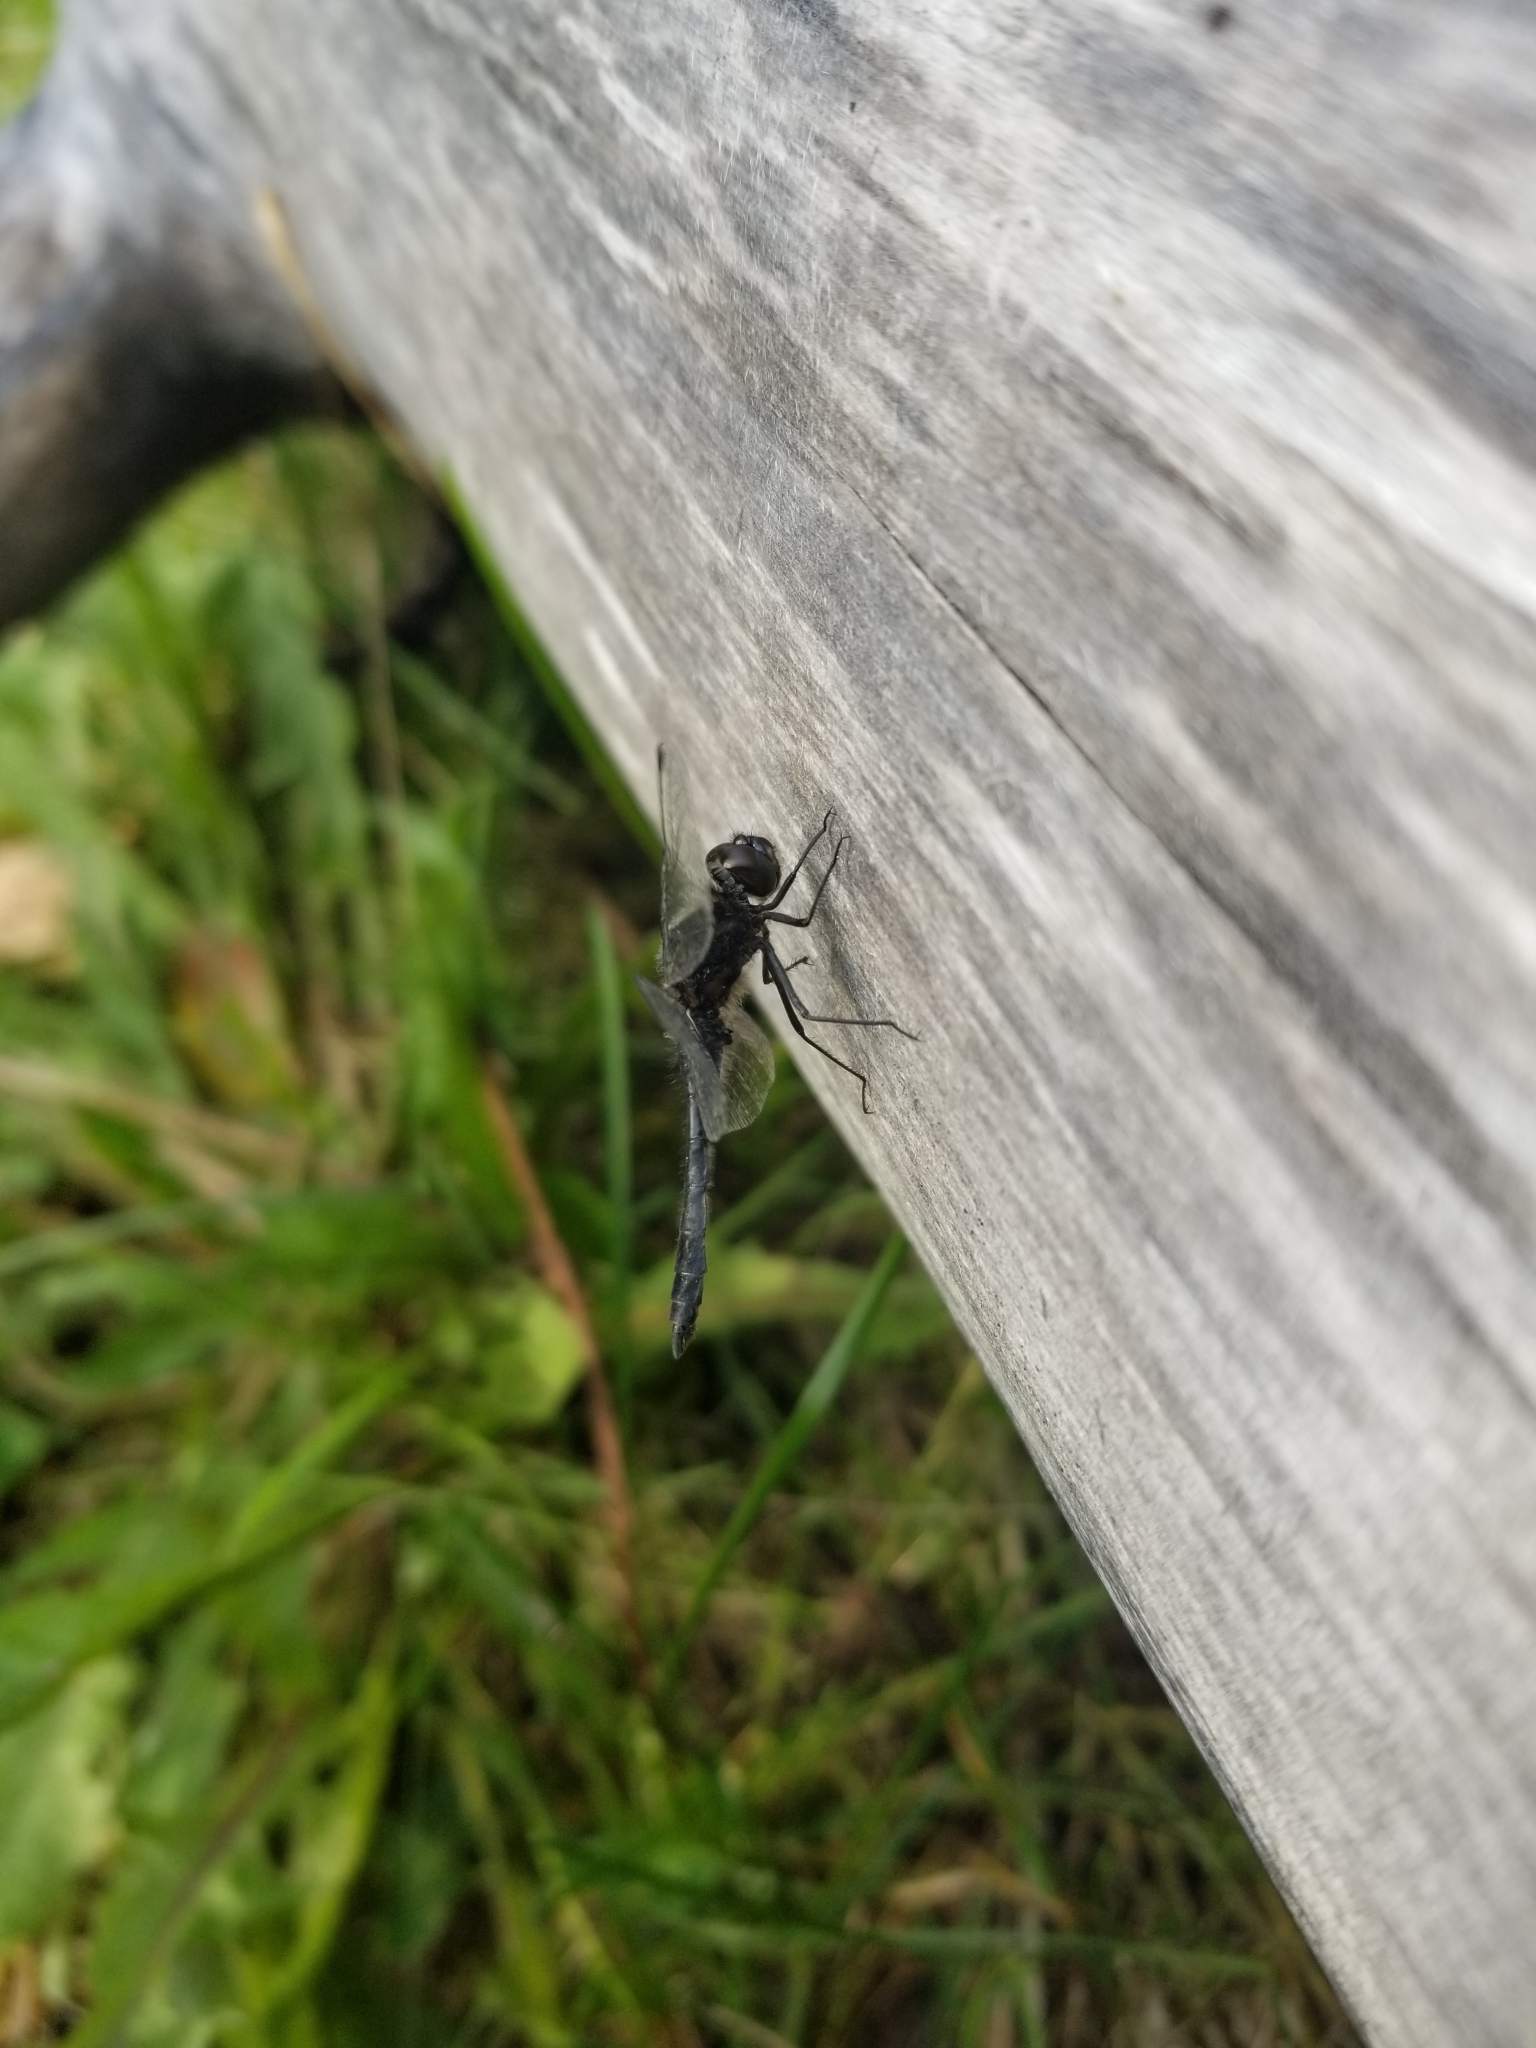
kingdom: Animalia
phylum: Arthropoda
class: Insecta
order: Odonata
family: Libellulidae
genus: Sympetrum
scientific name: Sympetrum danae
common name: Black darter
